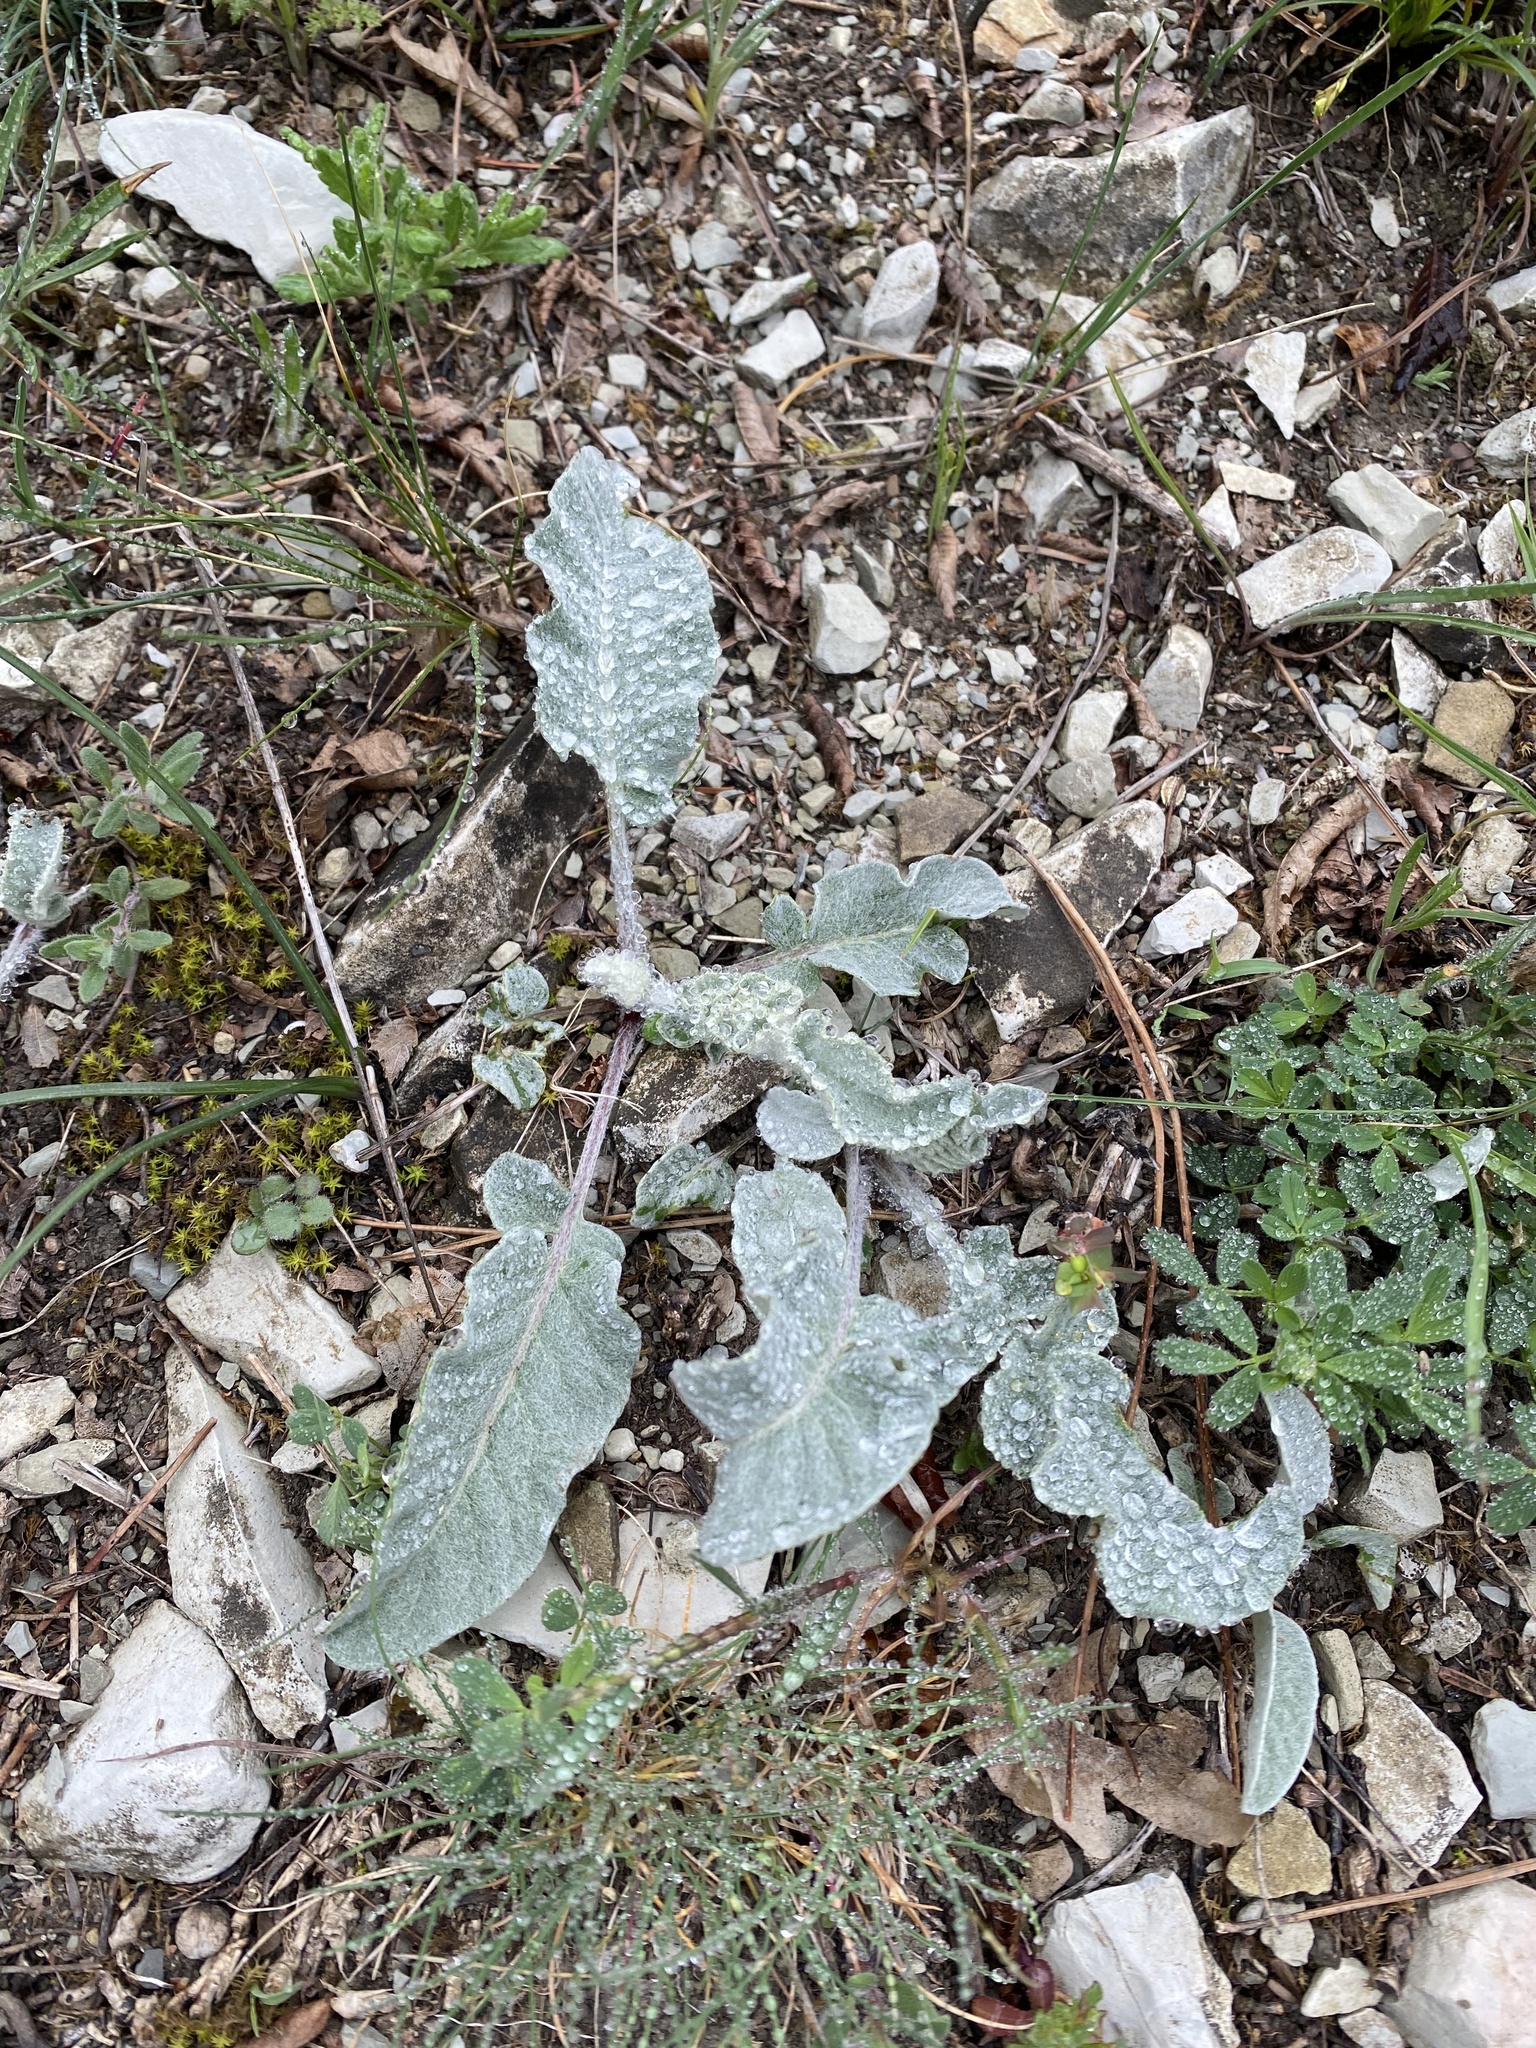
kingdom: Plantae
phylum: Tracheophyta
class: Magnoliopsida
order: Asterales
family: Asteraceae
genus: Psephellus
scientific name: Psephellus declinatus
